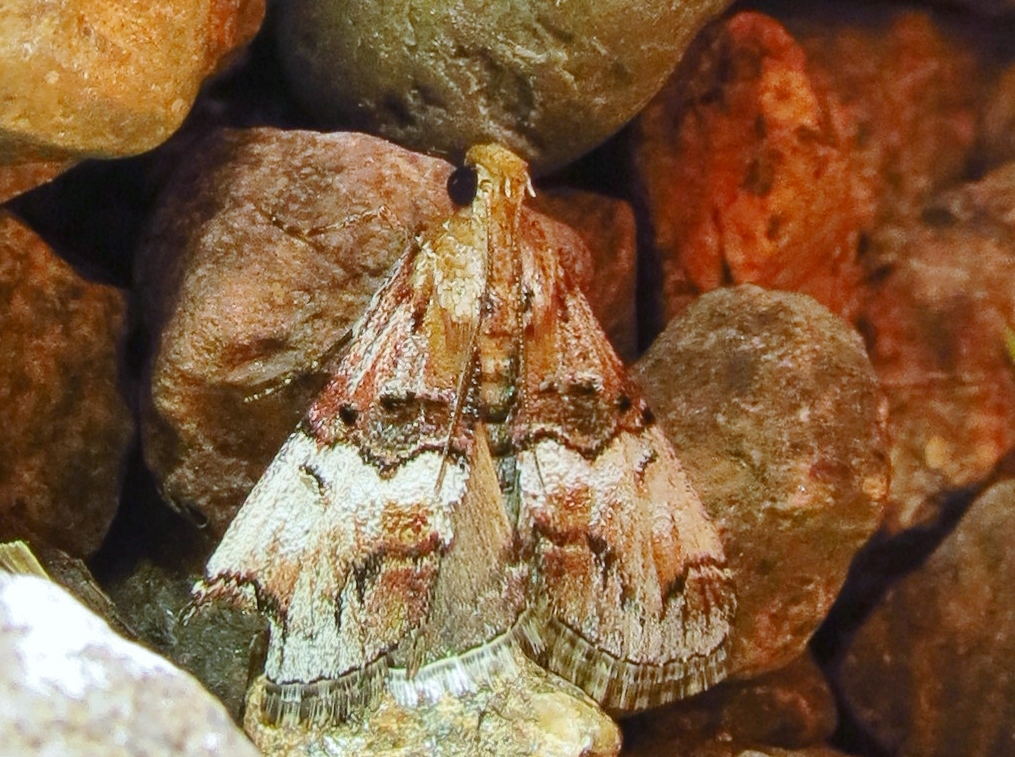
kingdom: Animalia
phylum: Arthropoda
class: Insecta
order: Lepidoptera
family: Pyralidae
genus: Toripalpus
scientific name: Toripalpus trabalis
